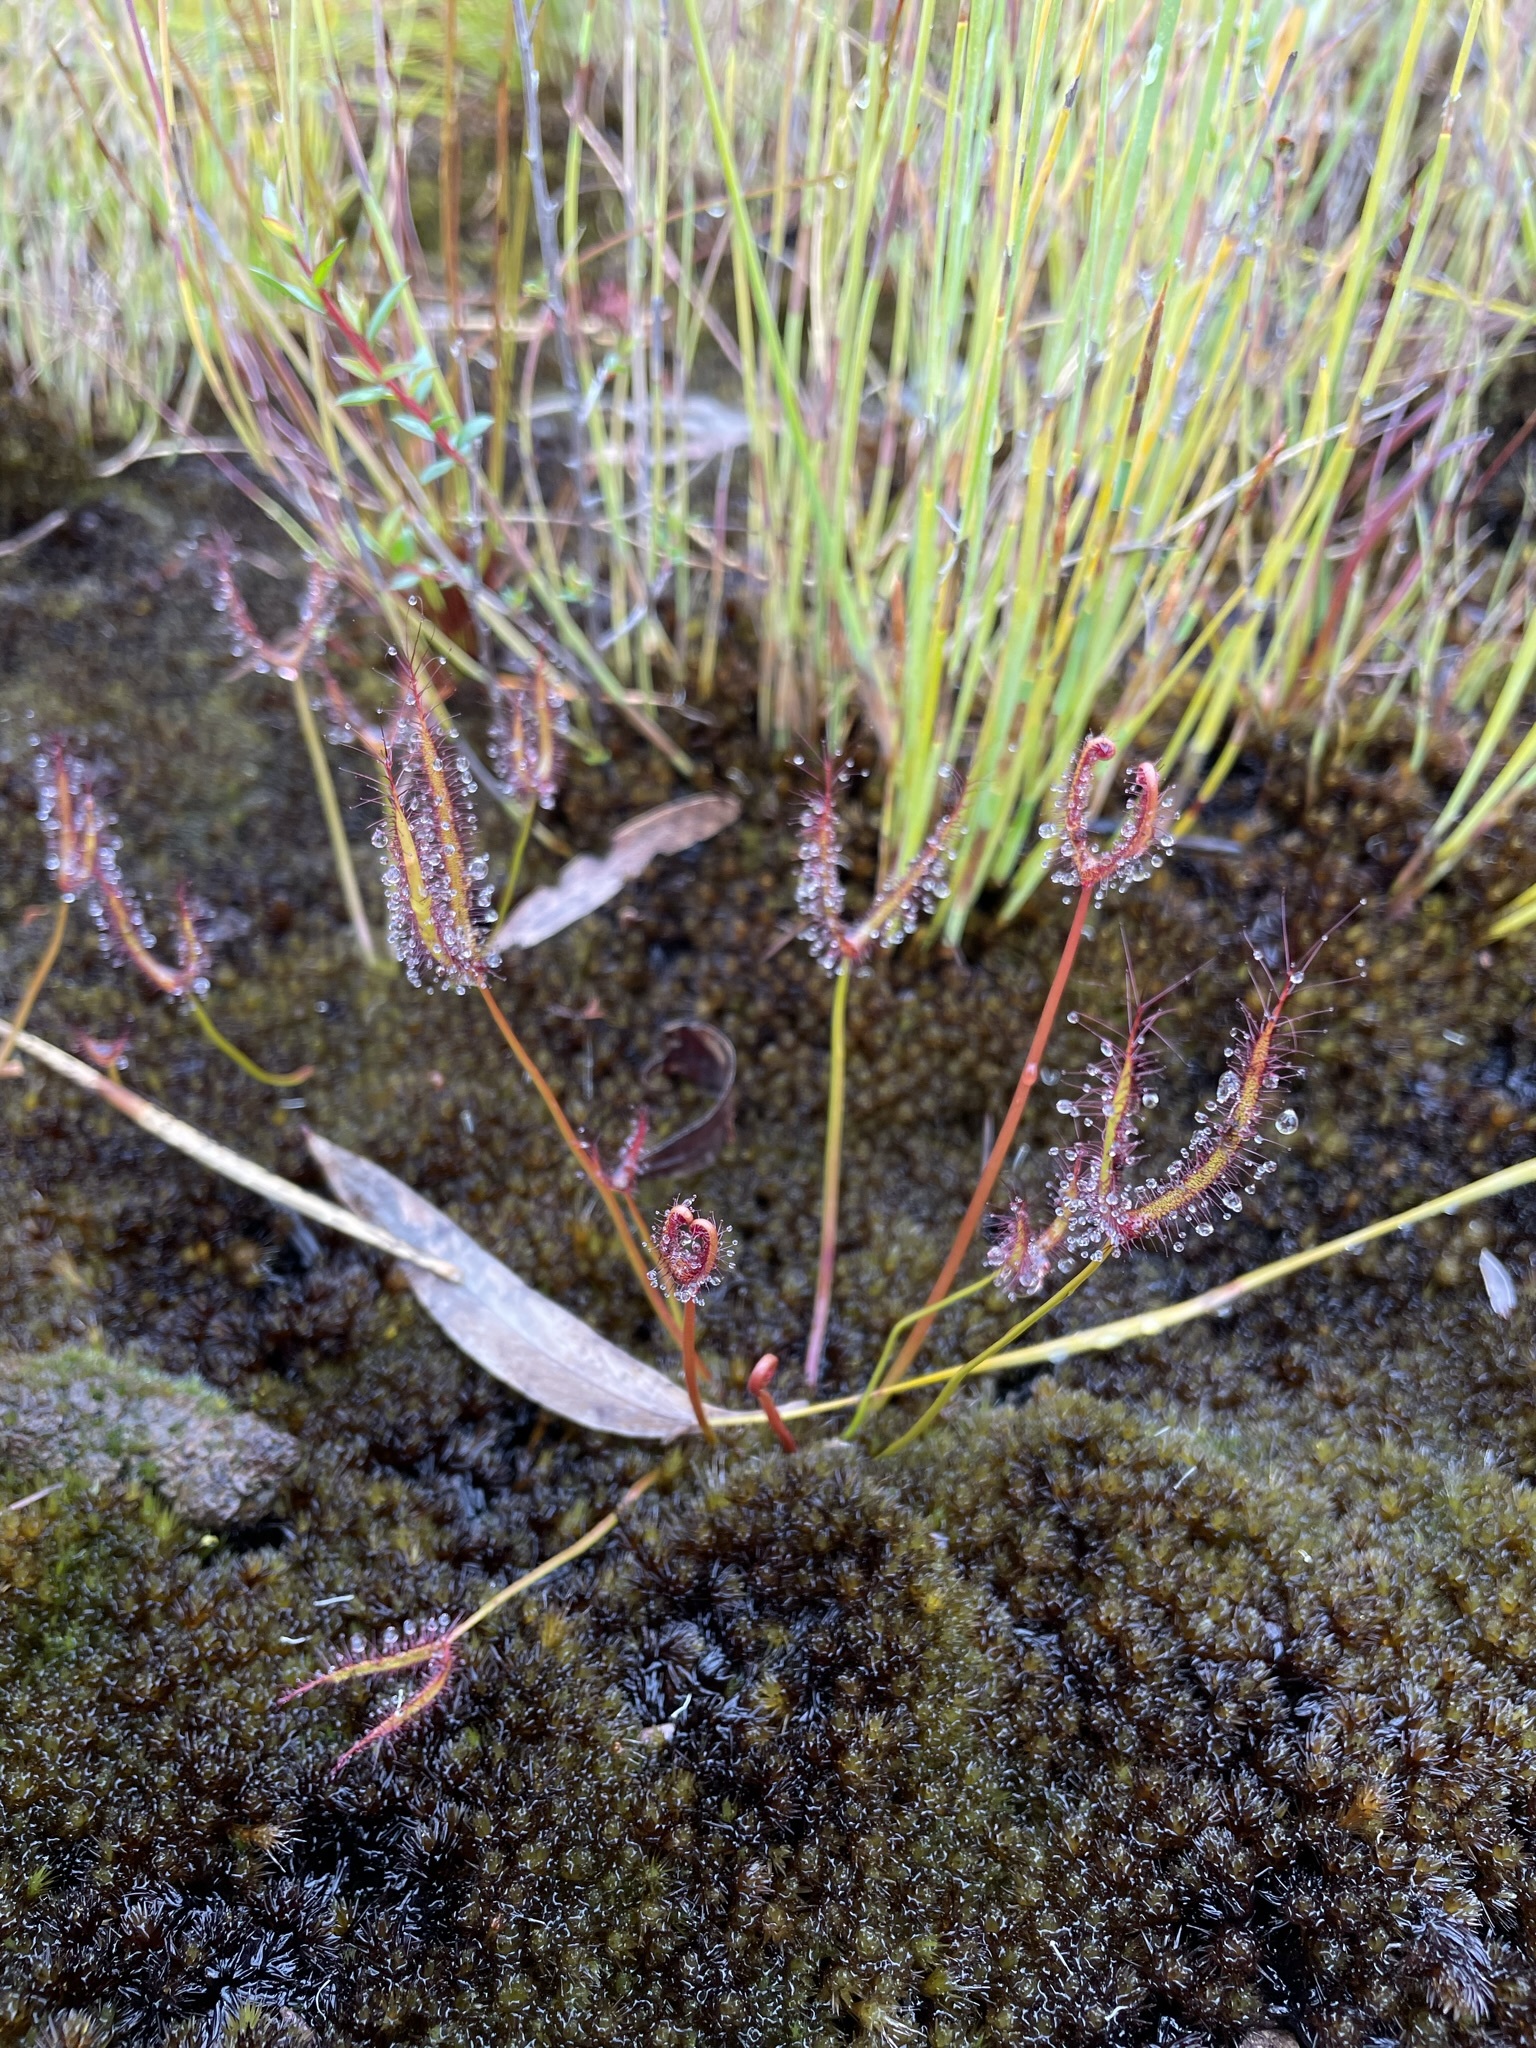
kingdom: Plantae
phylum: Tracheophyta
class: Magnoliopsida
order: Caryophyllales
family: Droseraceae
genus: Drosera
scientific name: Drosera binata
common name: Forked sundew
